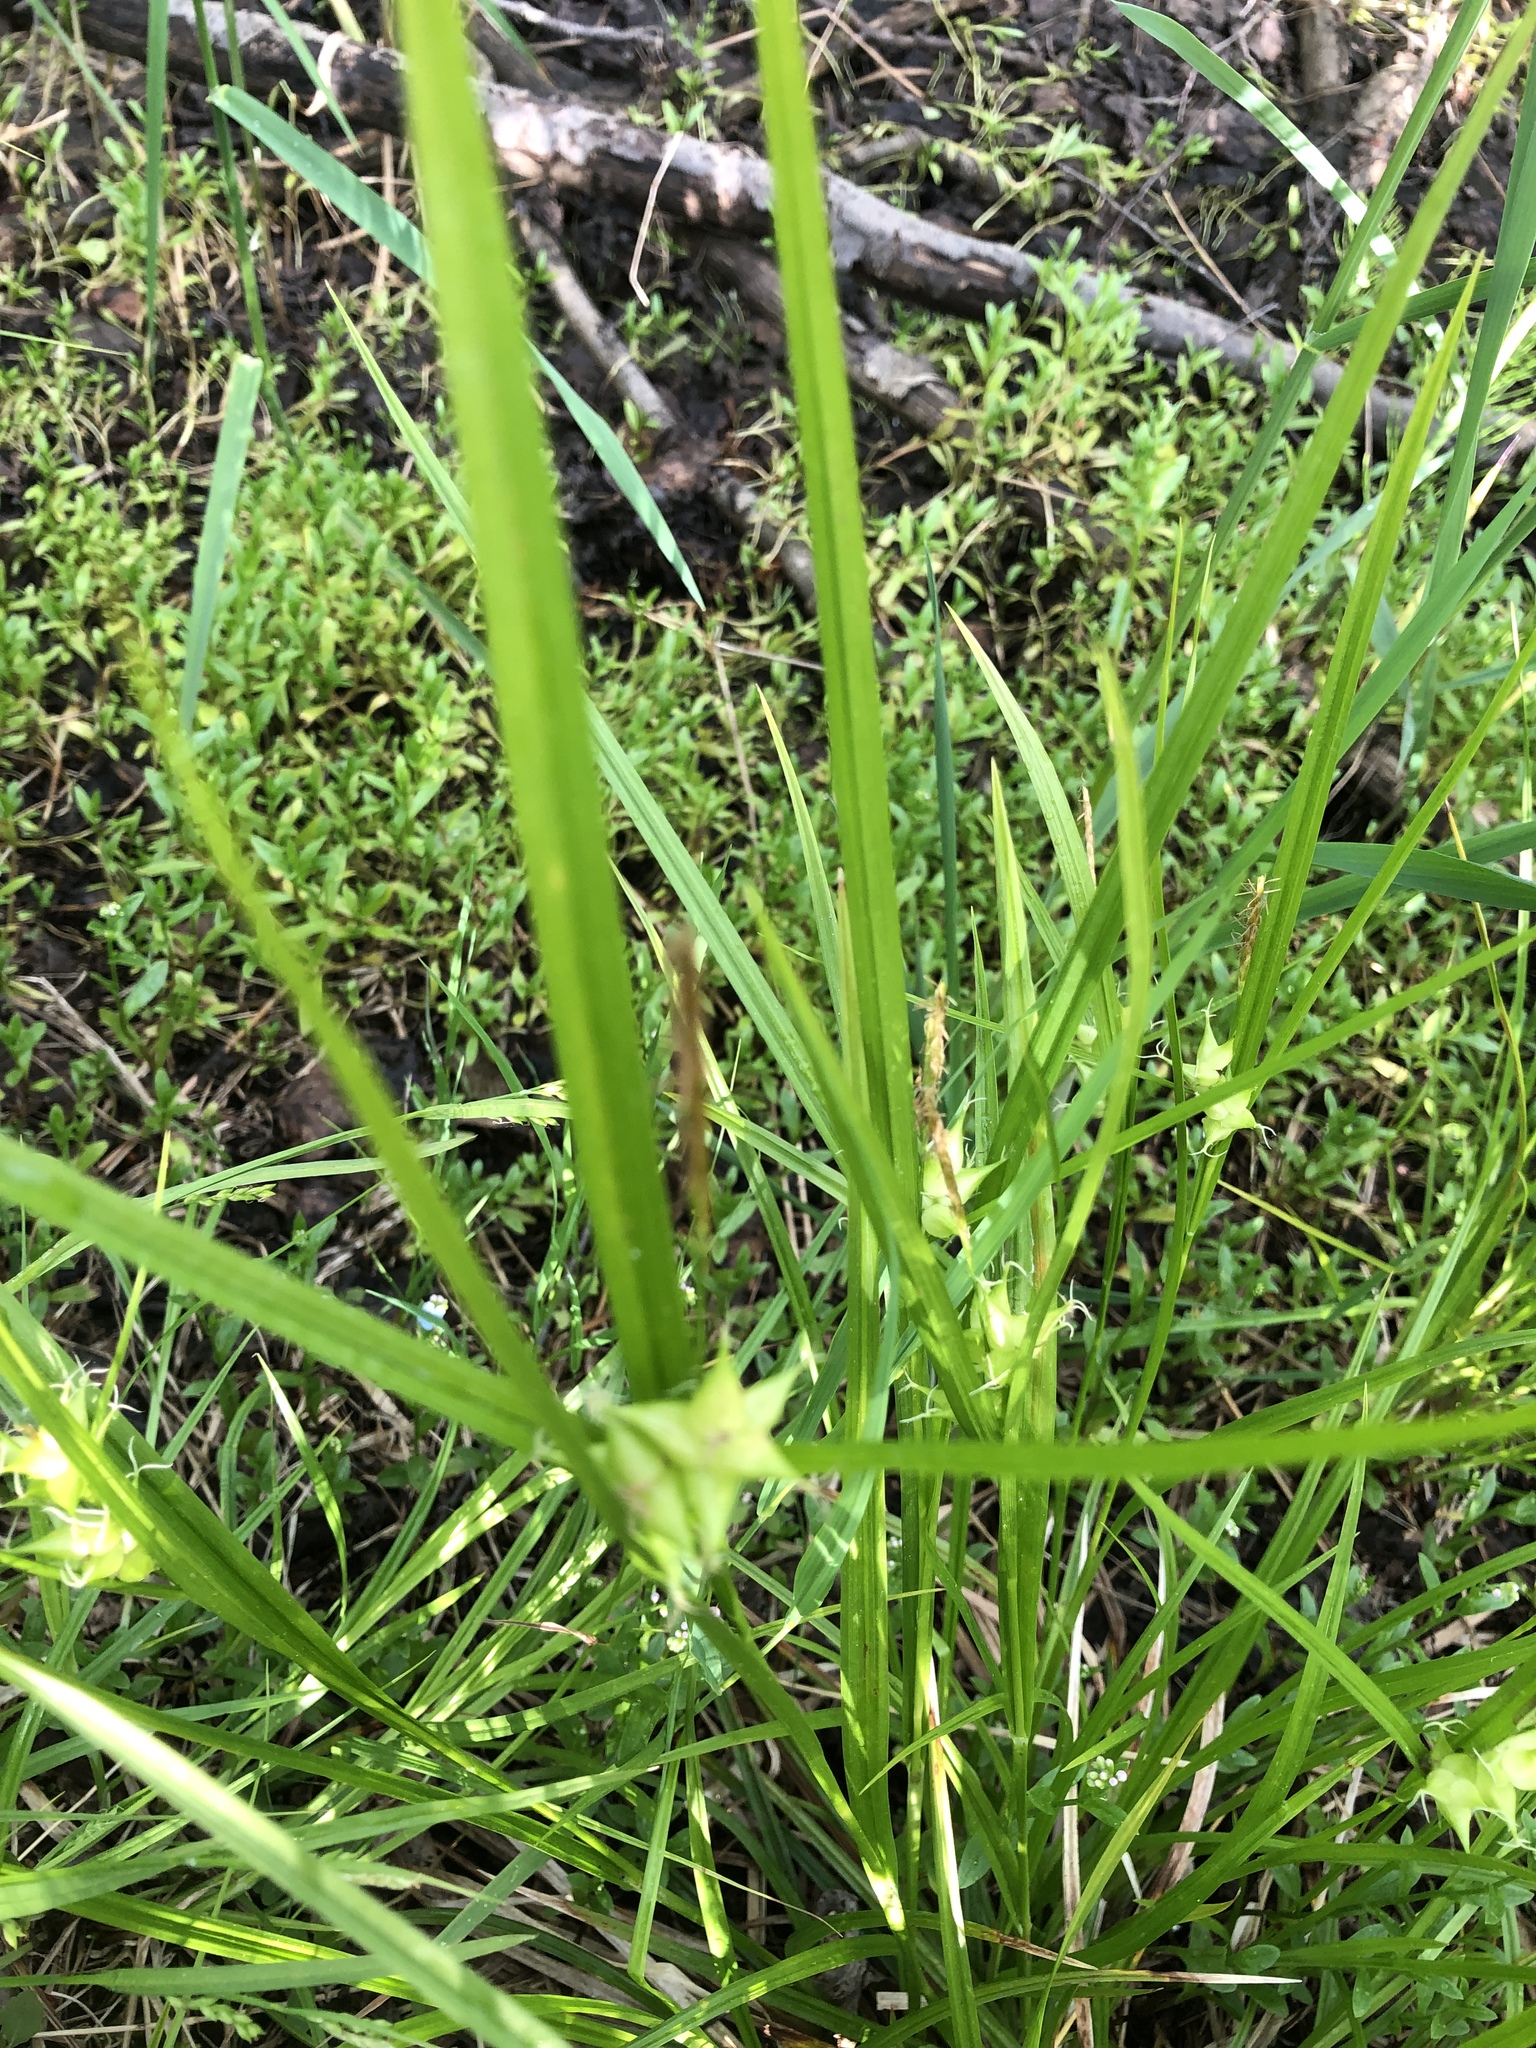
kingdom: Plantae
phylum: Tracheophyta
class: Liliopsida
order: Poales
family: Cyperaceae
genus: Carex
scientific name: Carex intumescens
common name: Greater bladder sedge
